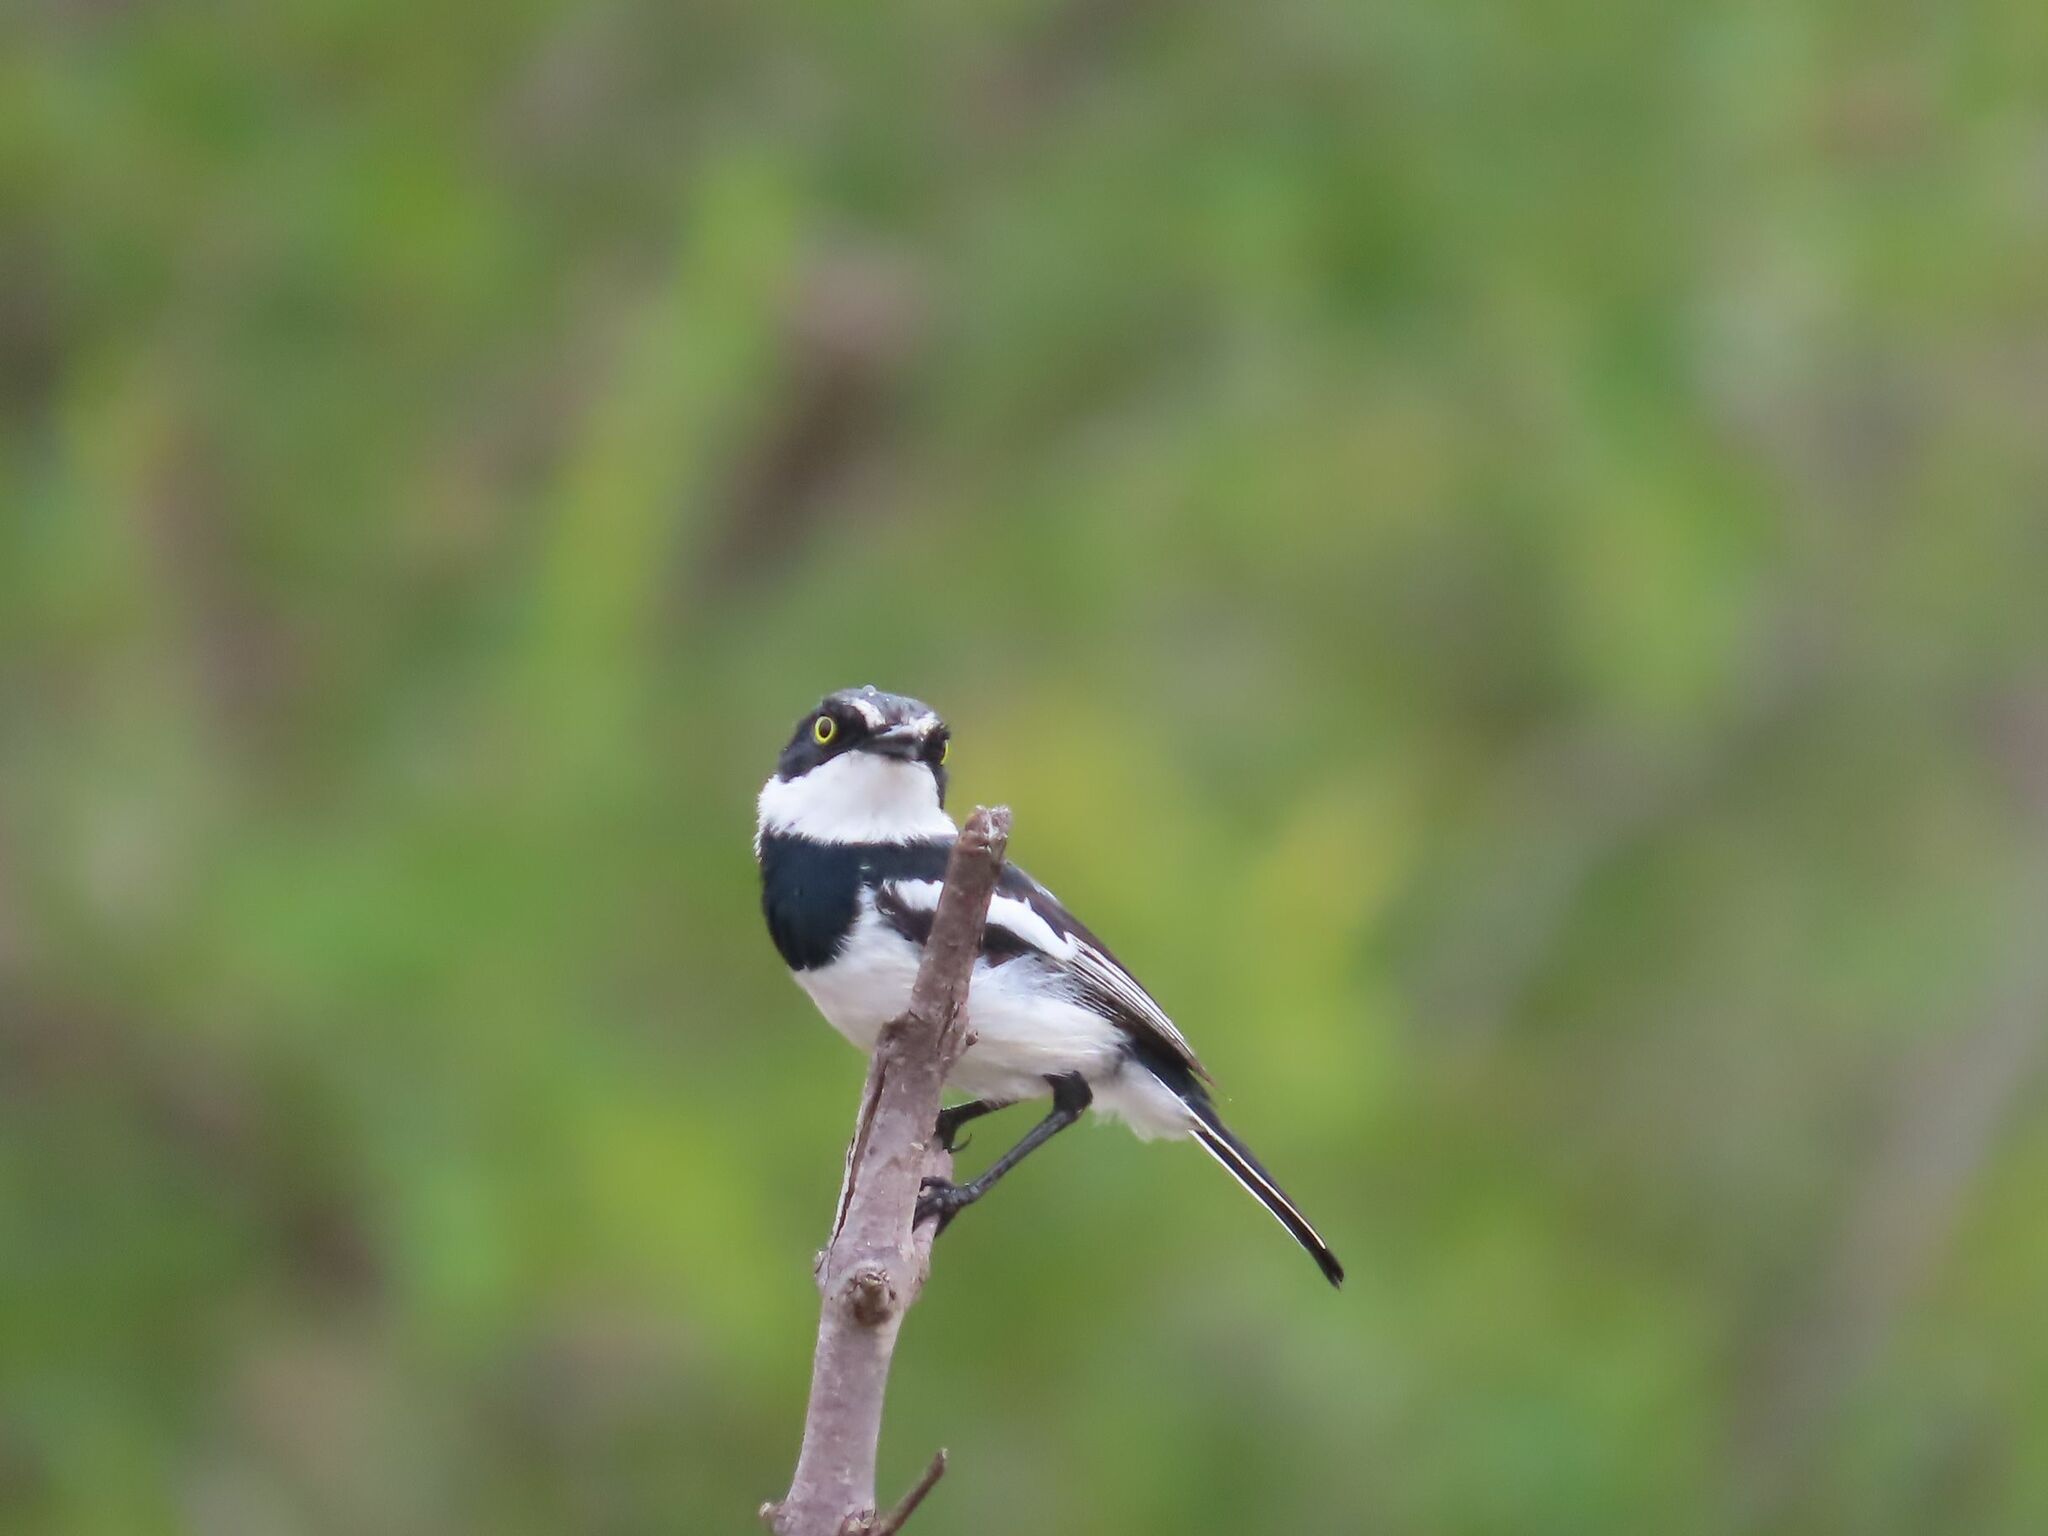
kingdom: Animalia
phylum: Chordata
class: Aves
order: Passeriformes
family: Platysteiridae
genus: Batis
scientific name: Batis molitor
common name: Chinspot batis
